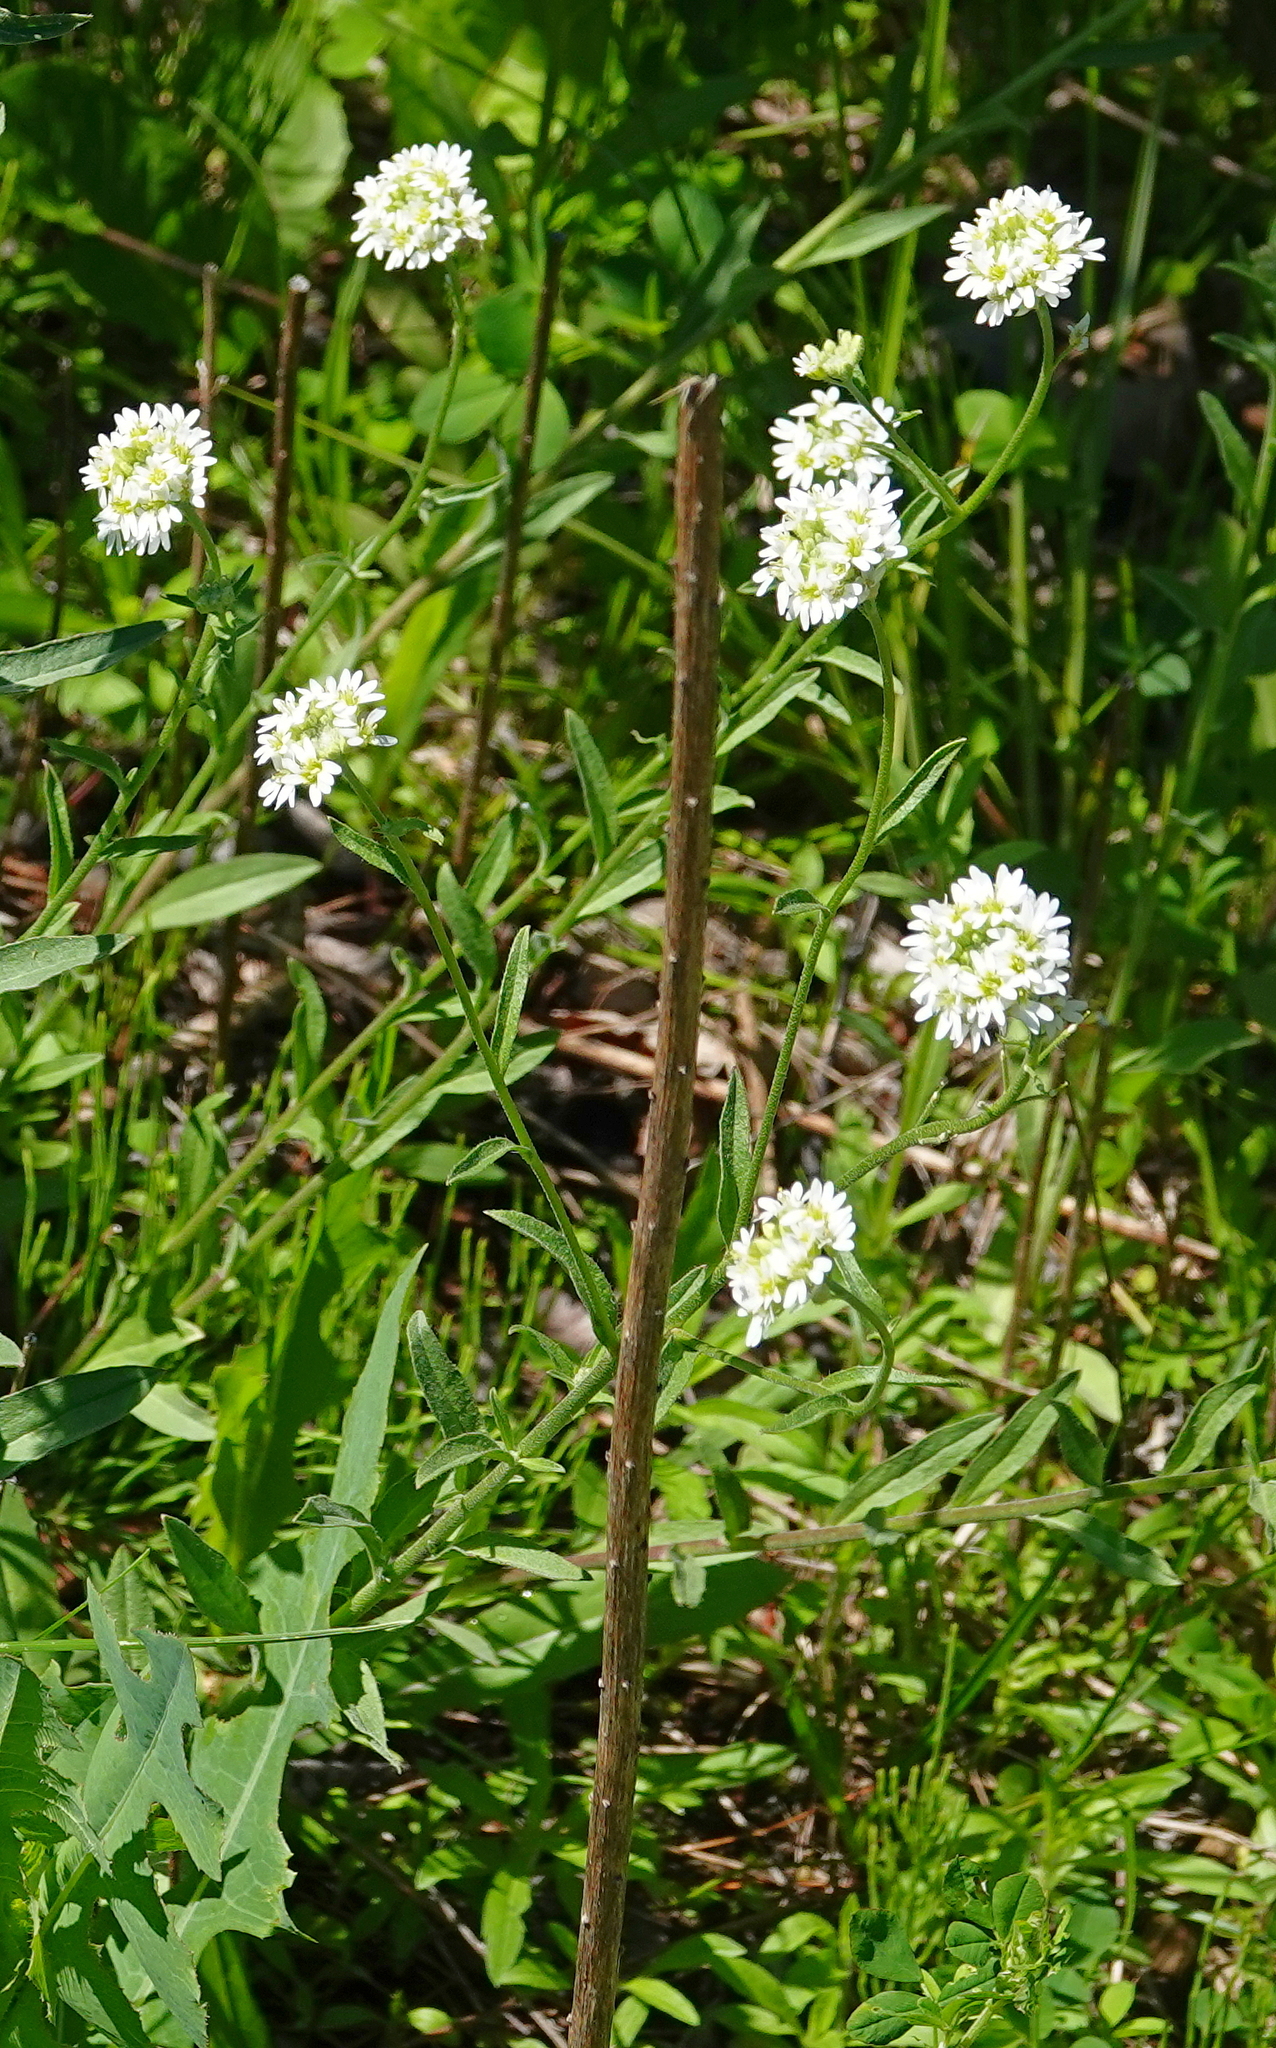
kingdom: Plantae
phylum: Tracheophyta
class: Magnoliopsida
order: Brassicales
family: Brassicaceae
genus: Berteroa
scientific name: Berteroa incana
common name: Hoary alison
